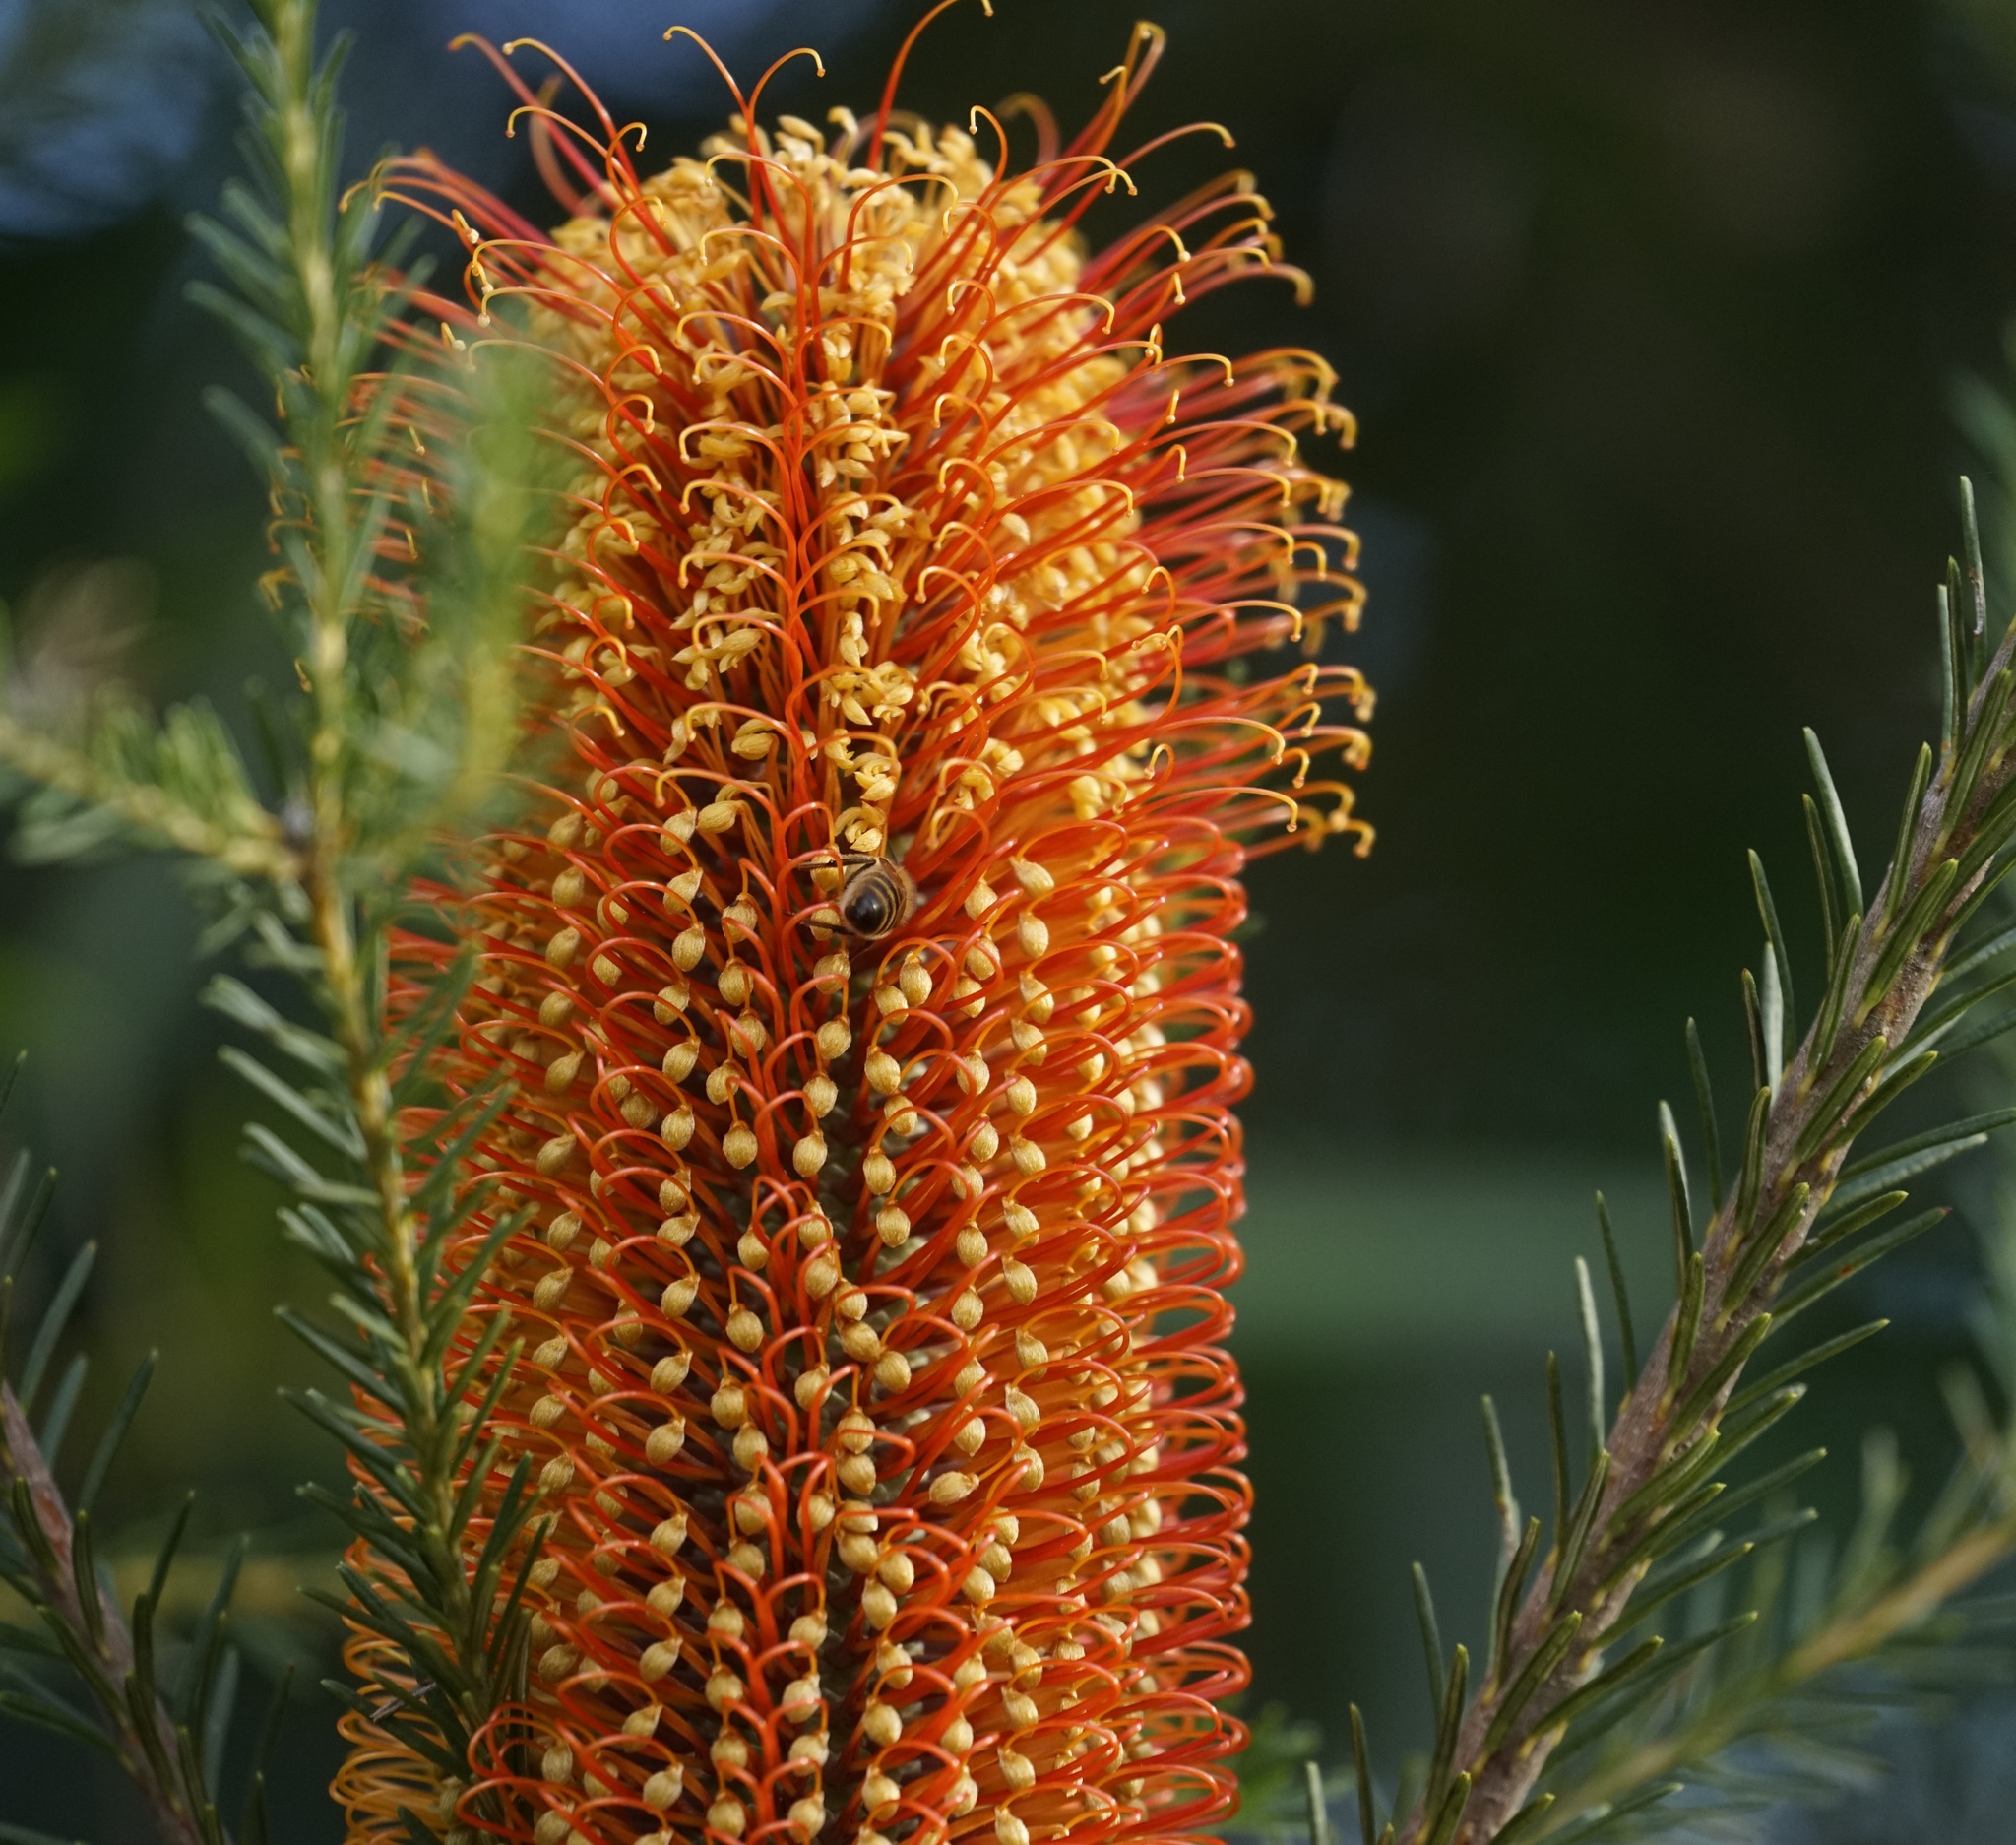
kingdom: Plantae
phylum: Tracheophyta
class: Magnoliopsida
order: Proteales
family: Proteaceae
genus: Banksia
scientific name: Banksia ericifolia
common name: Heath-leaf banksia
